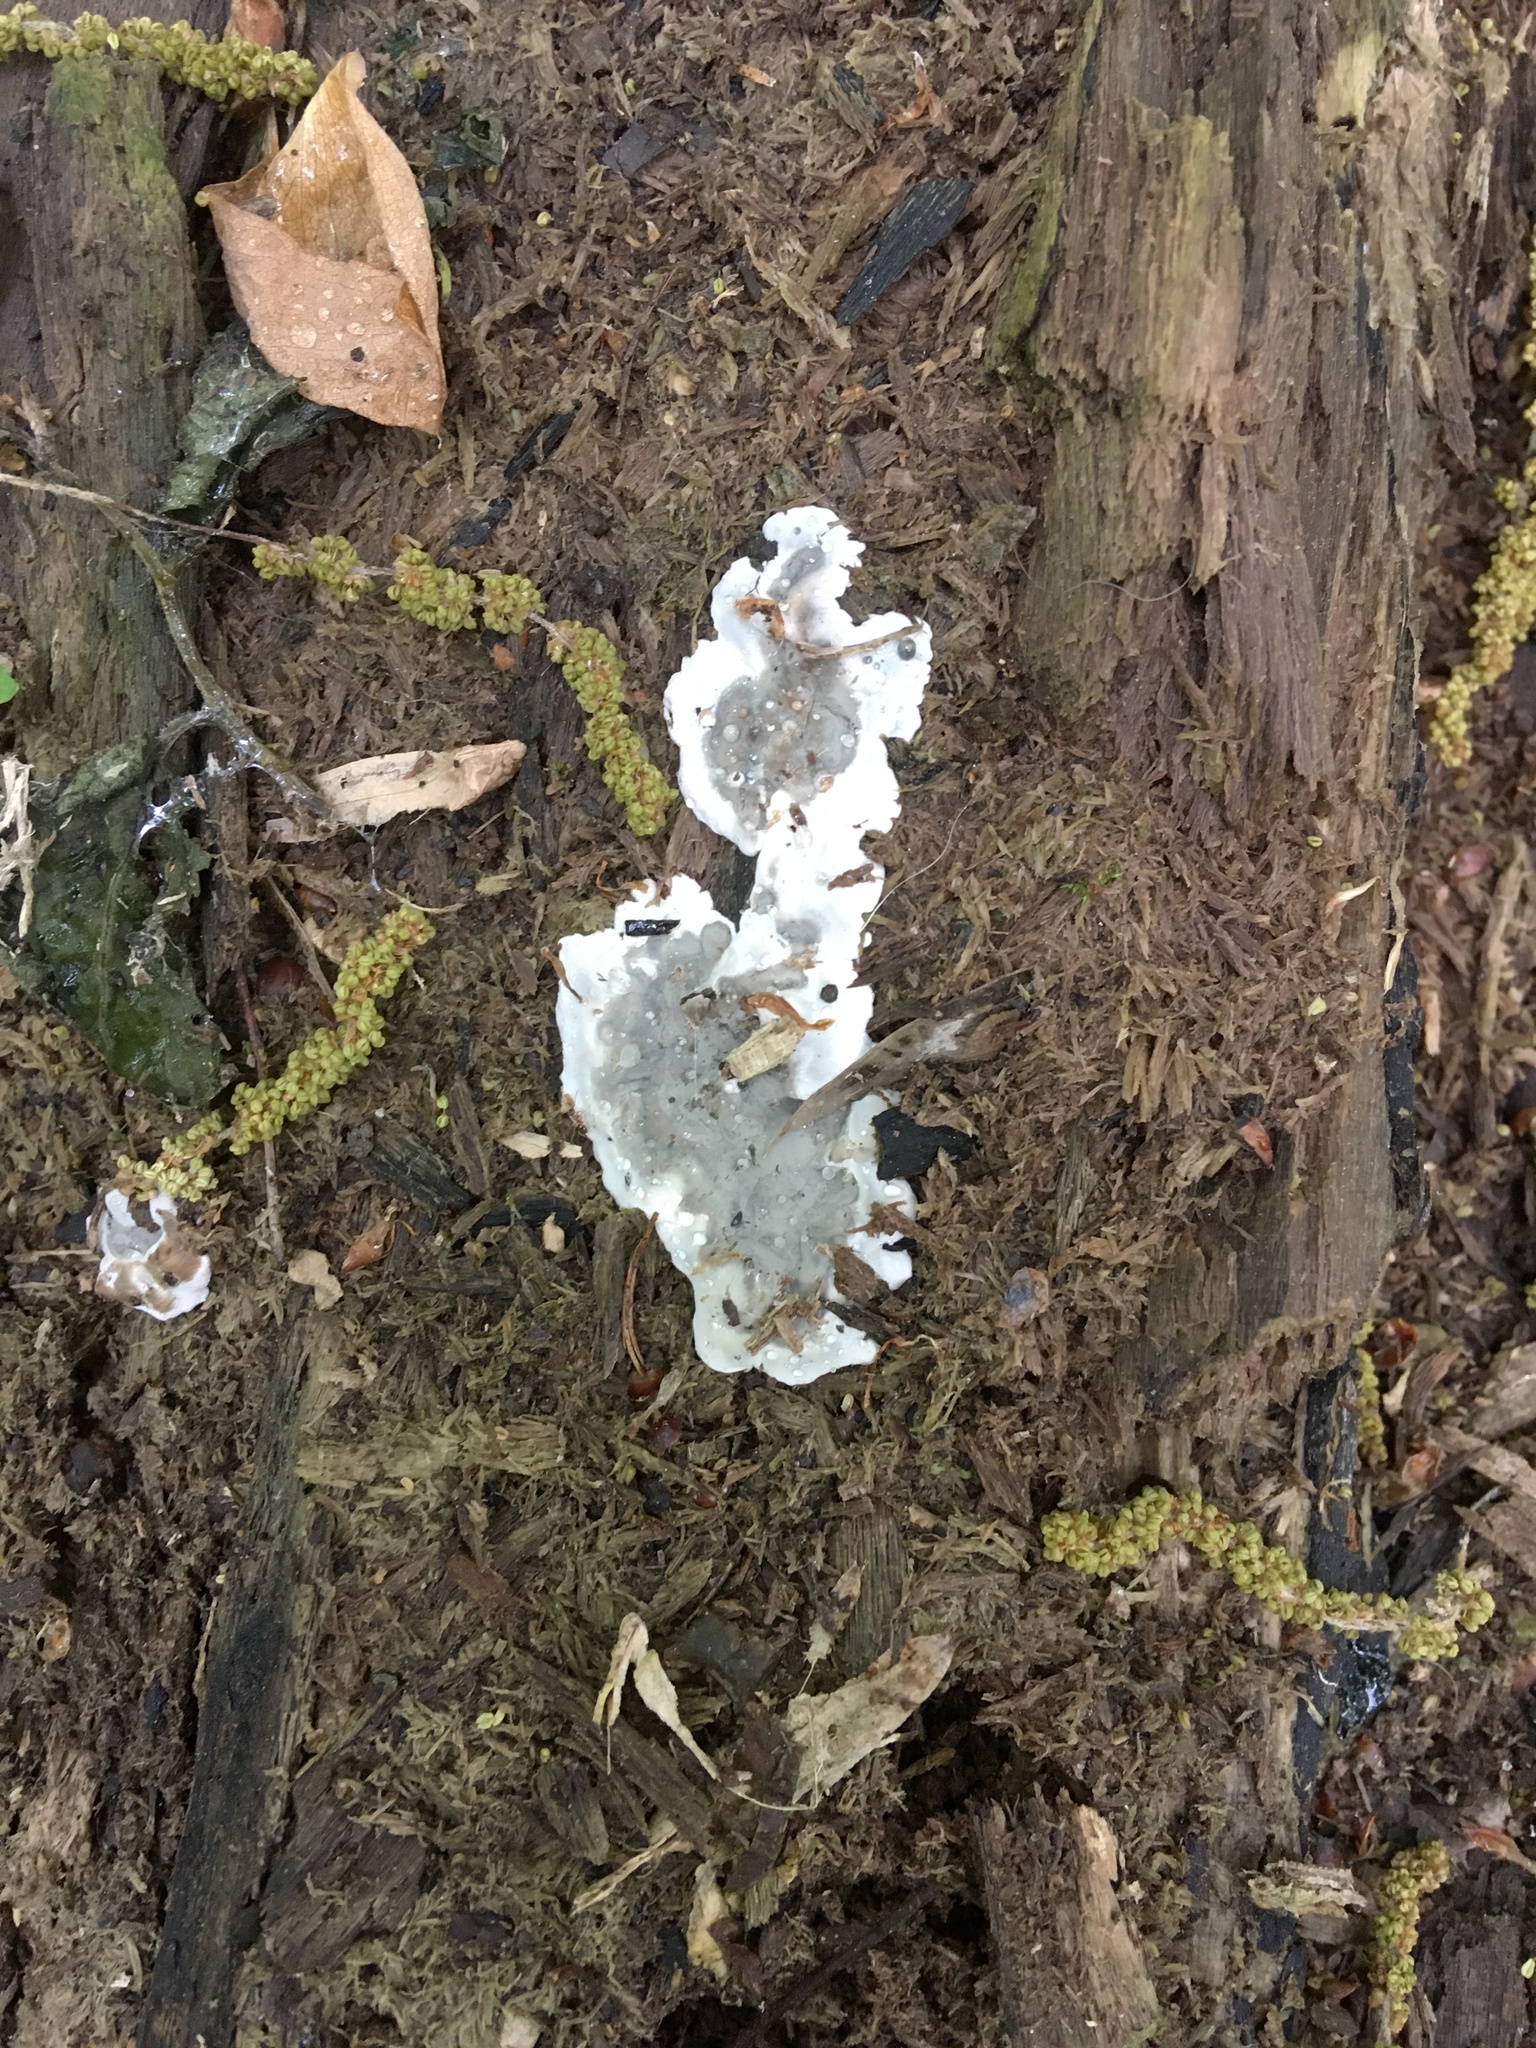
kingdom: Fungi
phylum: Ascomycota
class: Sordariomycetes
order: Xylariales
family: Xylariaceae
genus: Kretzschmaria
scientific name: Kretzschmaria deusta
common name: Brittle cinder
